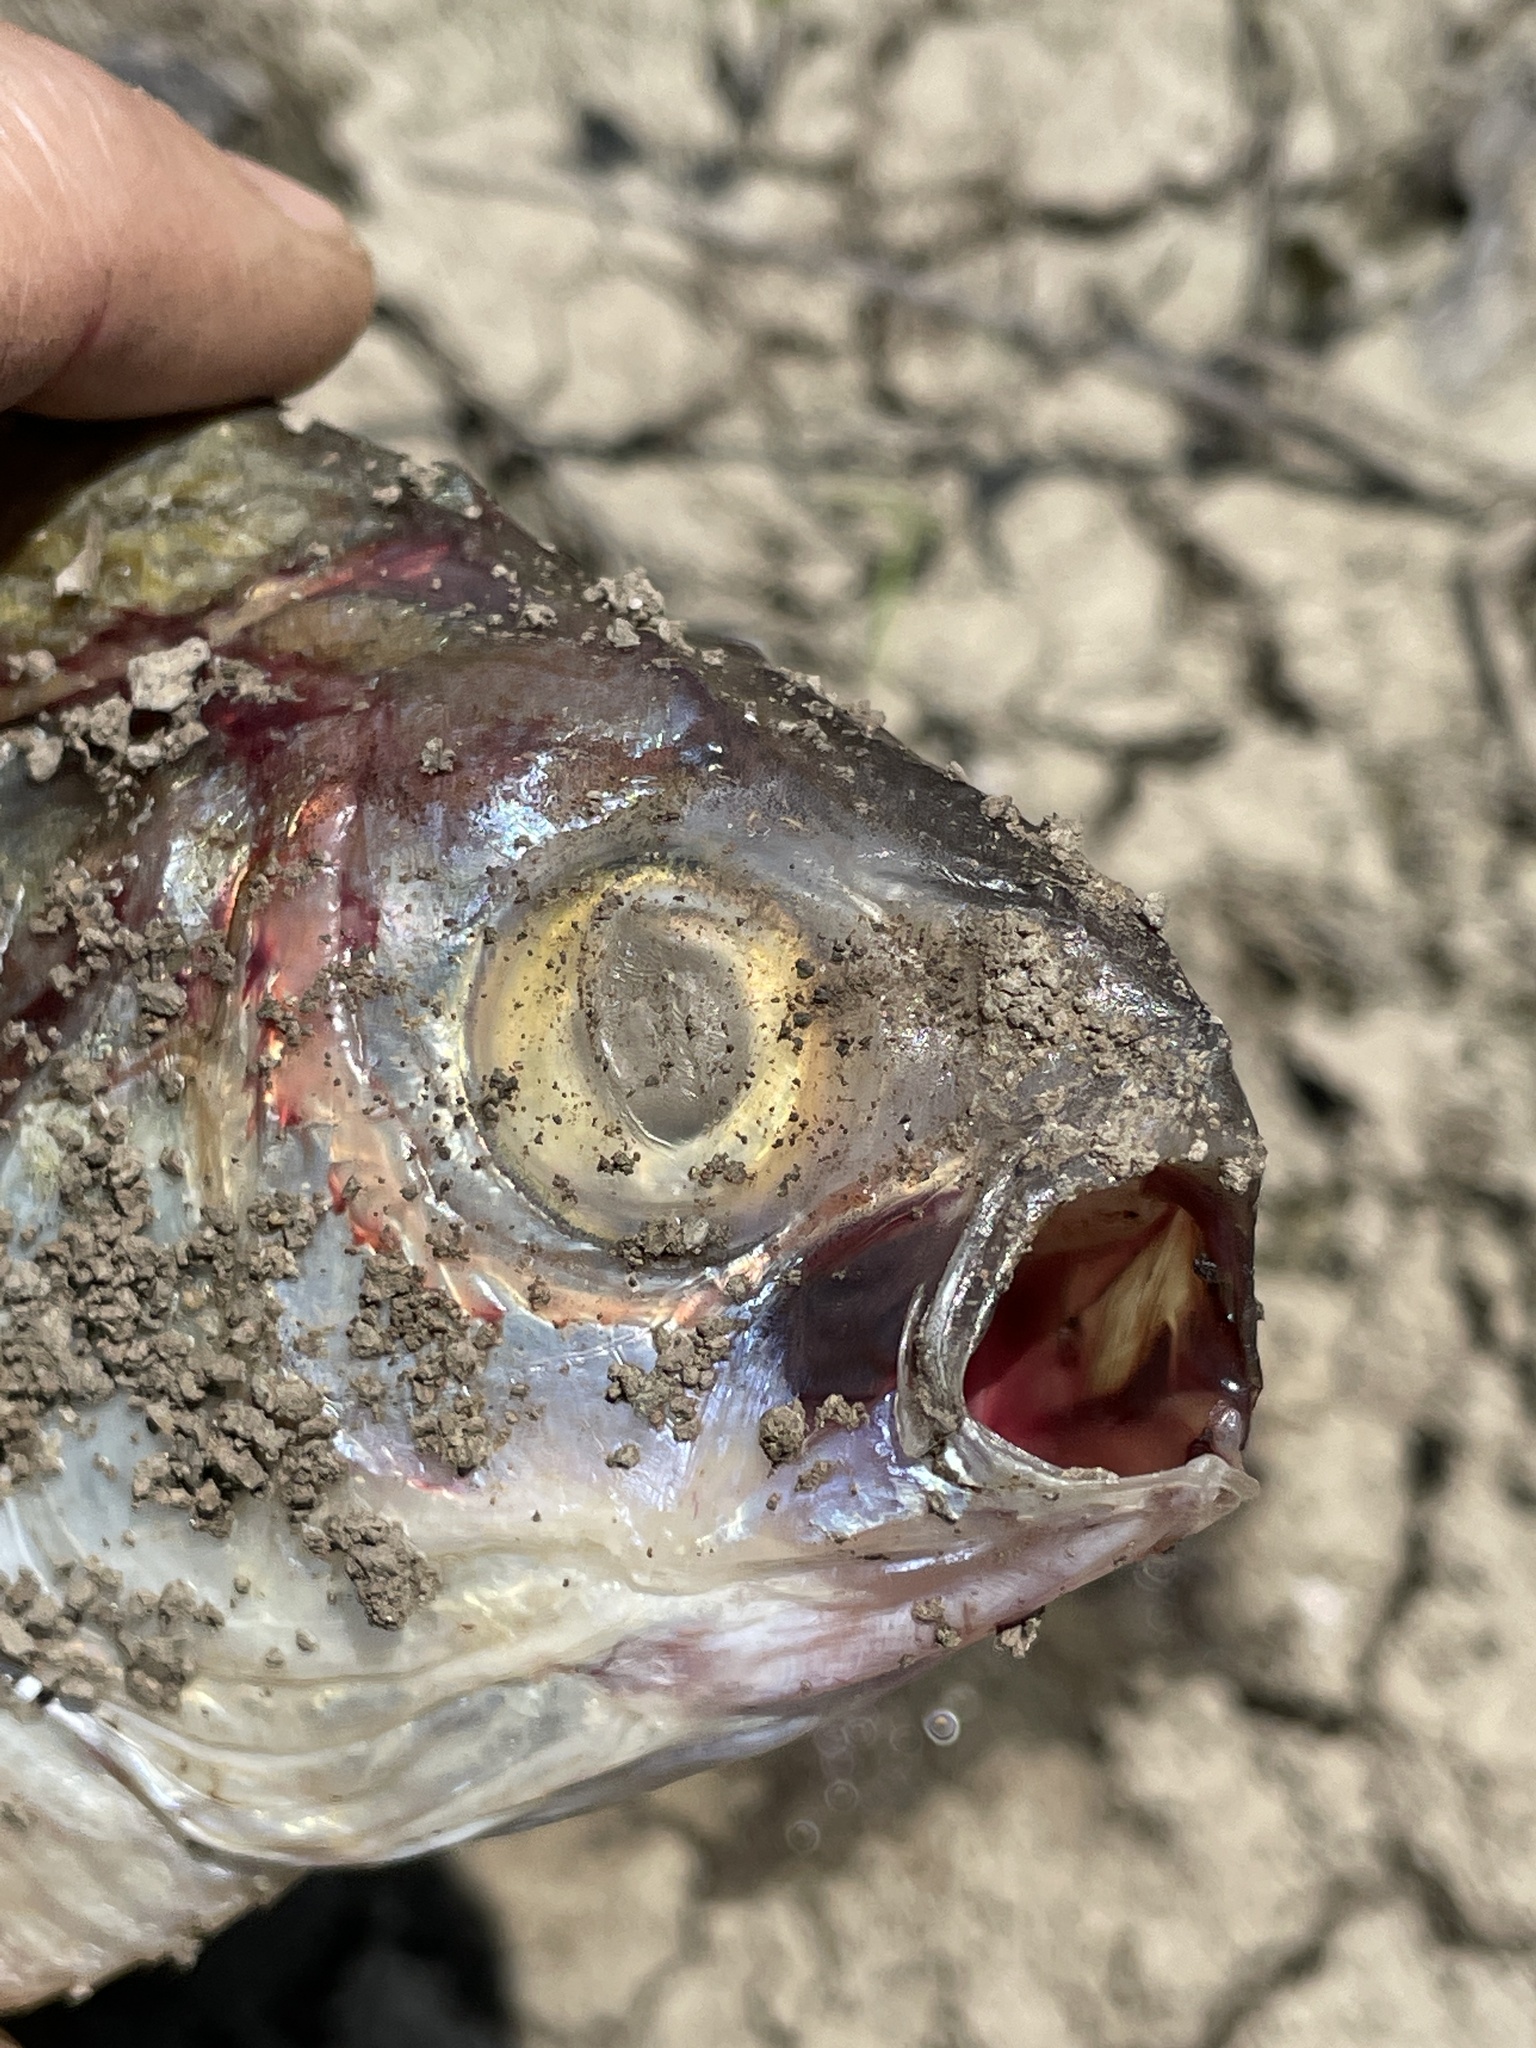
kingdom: Animalia
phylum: Chordata
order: Clupeiformes
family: Clupeidae
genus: Dorosoma
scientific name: Dorosoma cepedianum
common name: Gizzard shad
